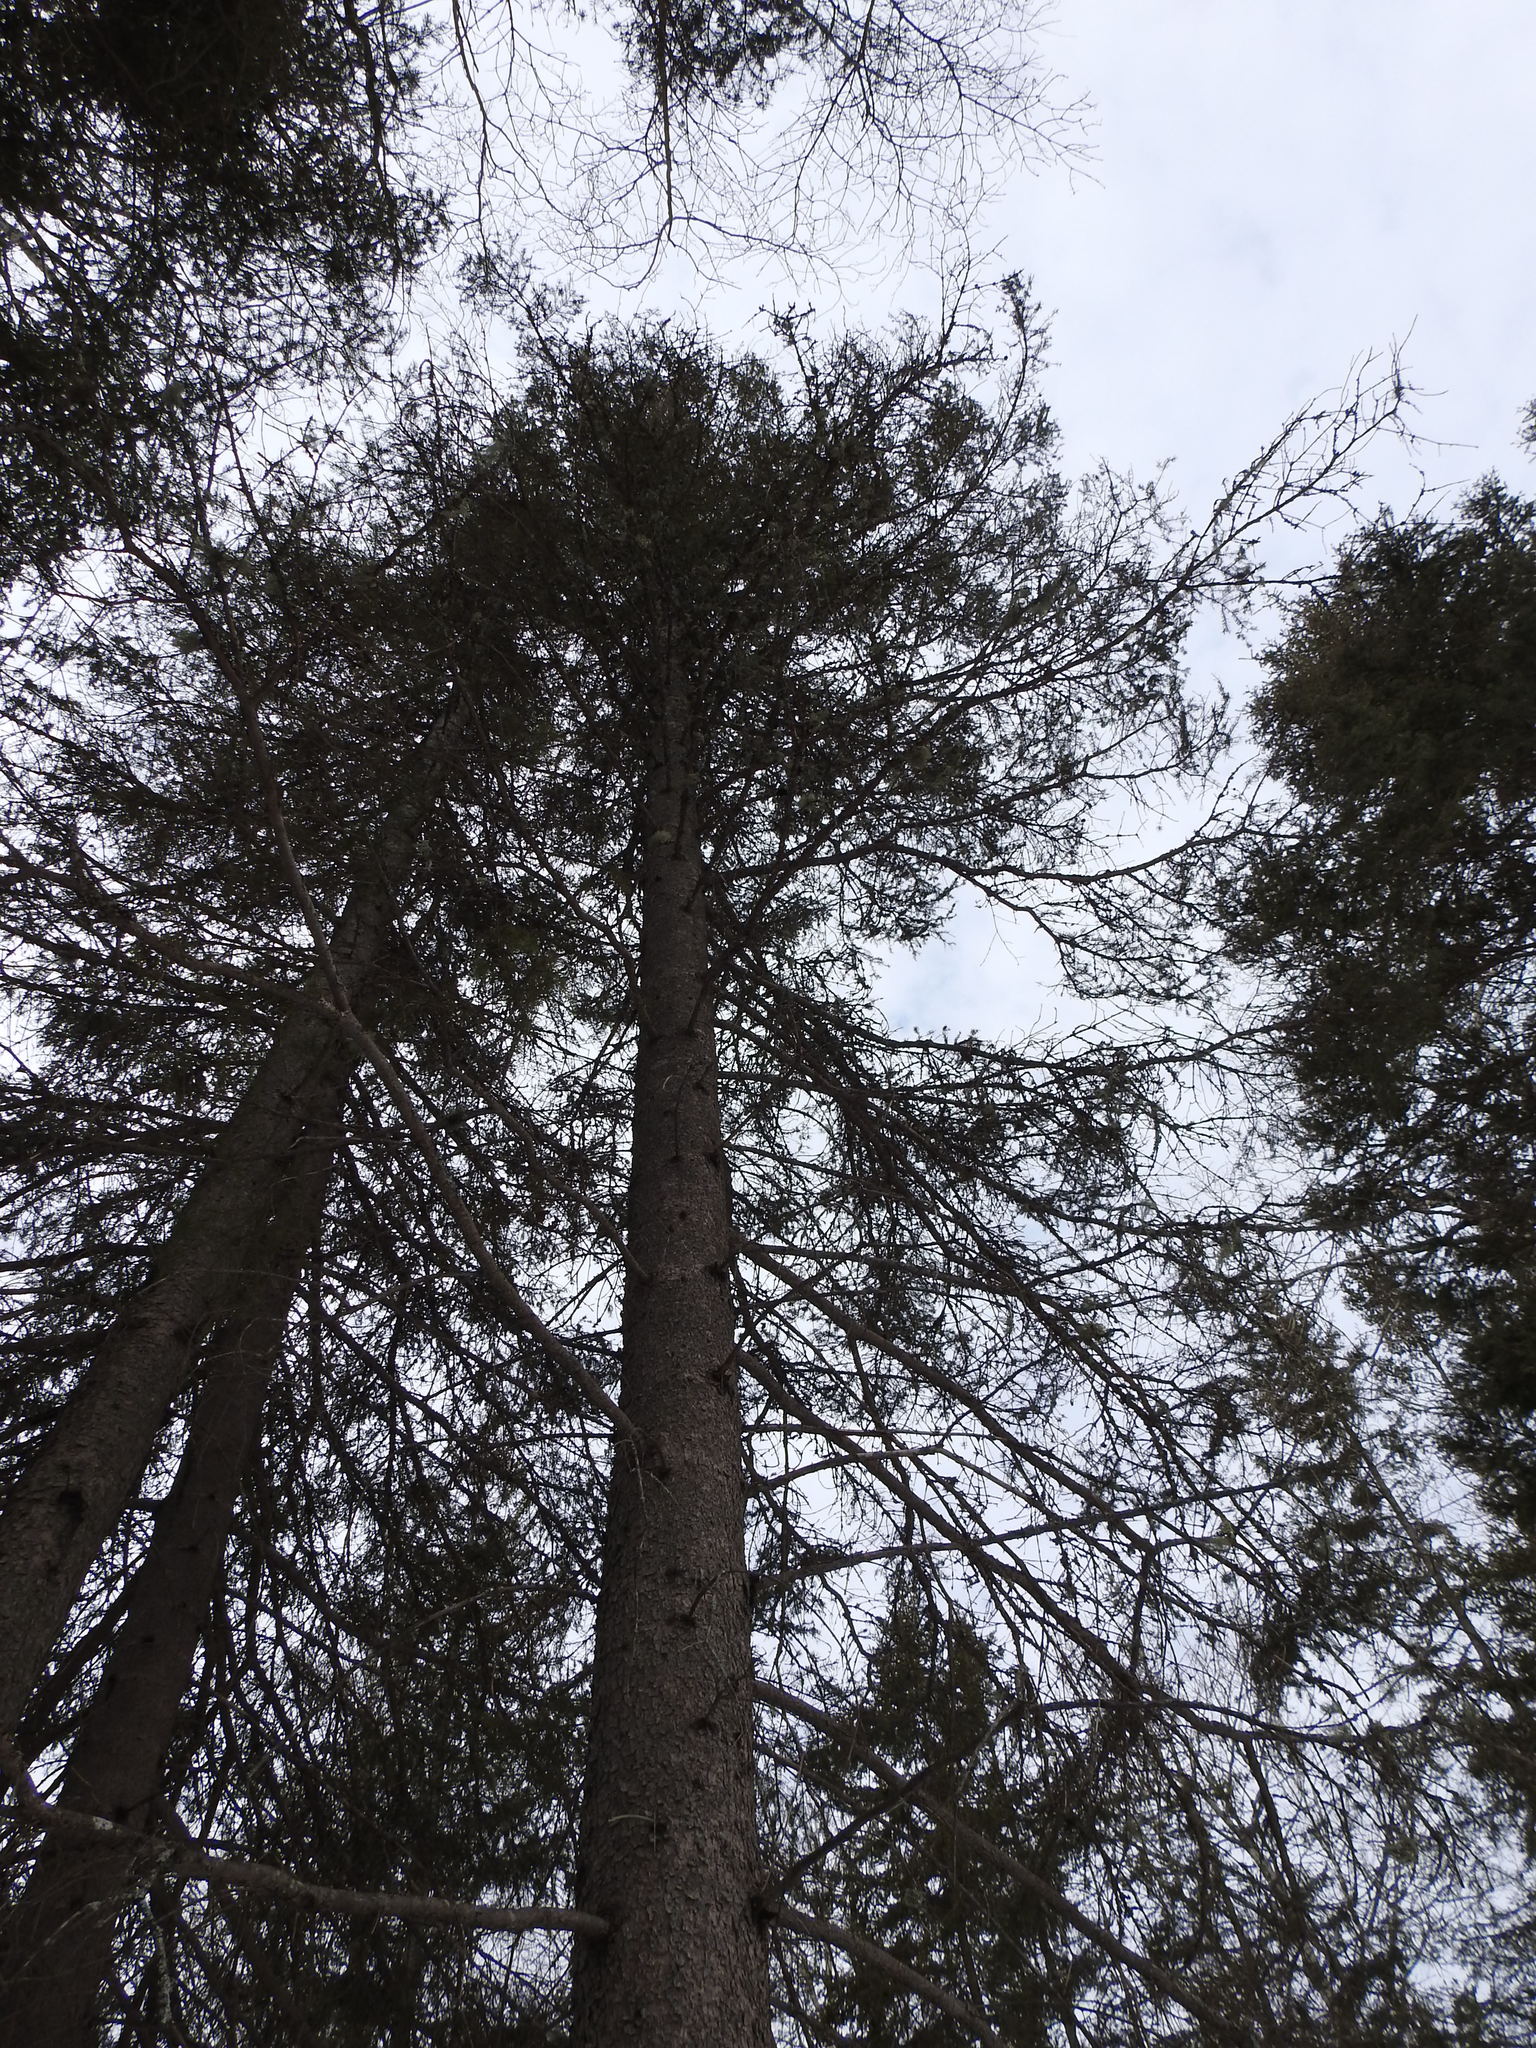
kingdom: Plantae
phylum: Tracheophyta
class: Pinopsida
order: Pinales
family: Pinaceae
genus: Picea
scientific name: Picea glauca
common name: White spruce
